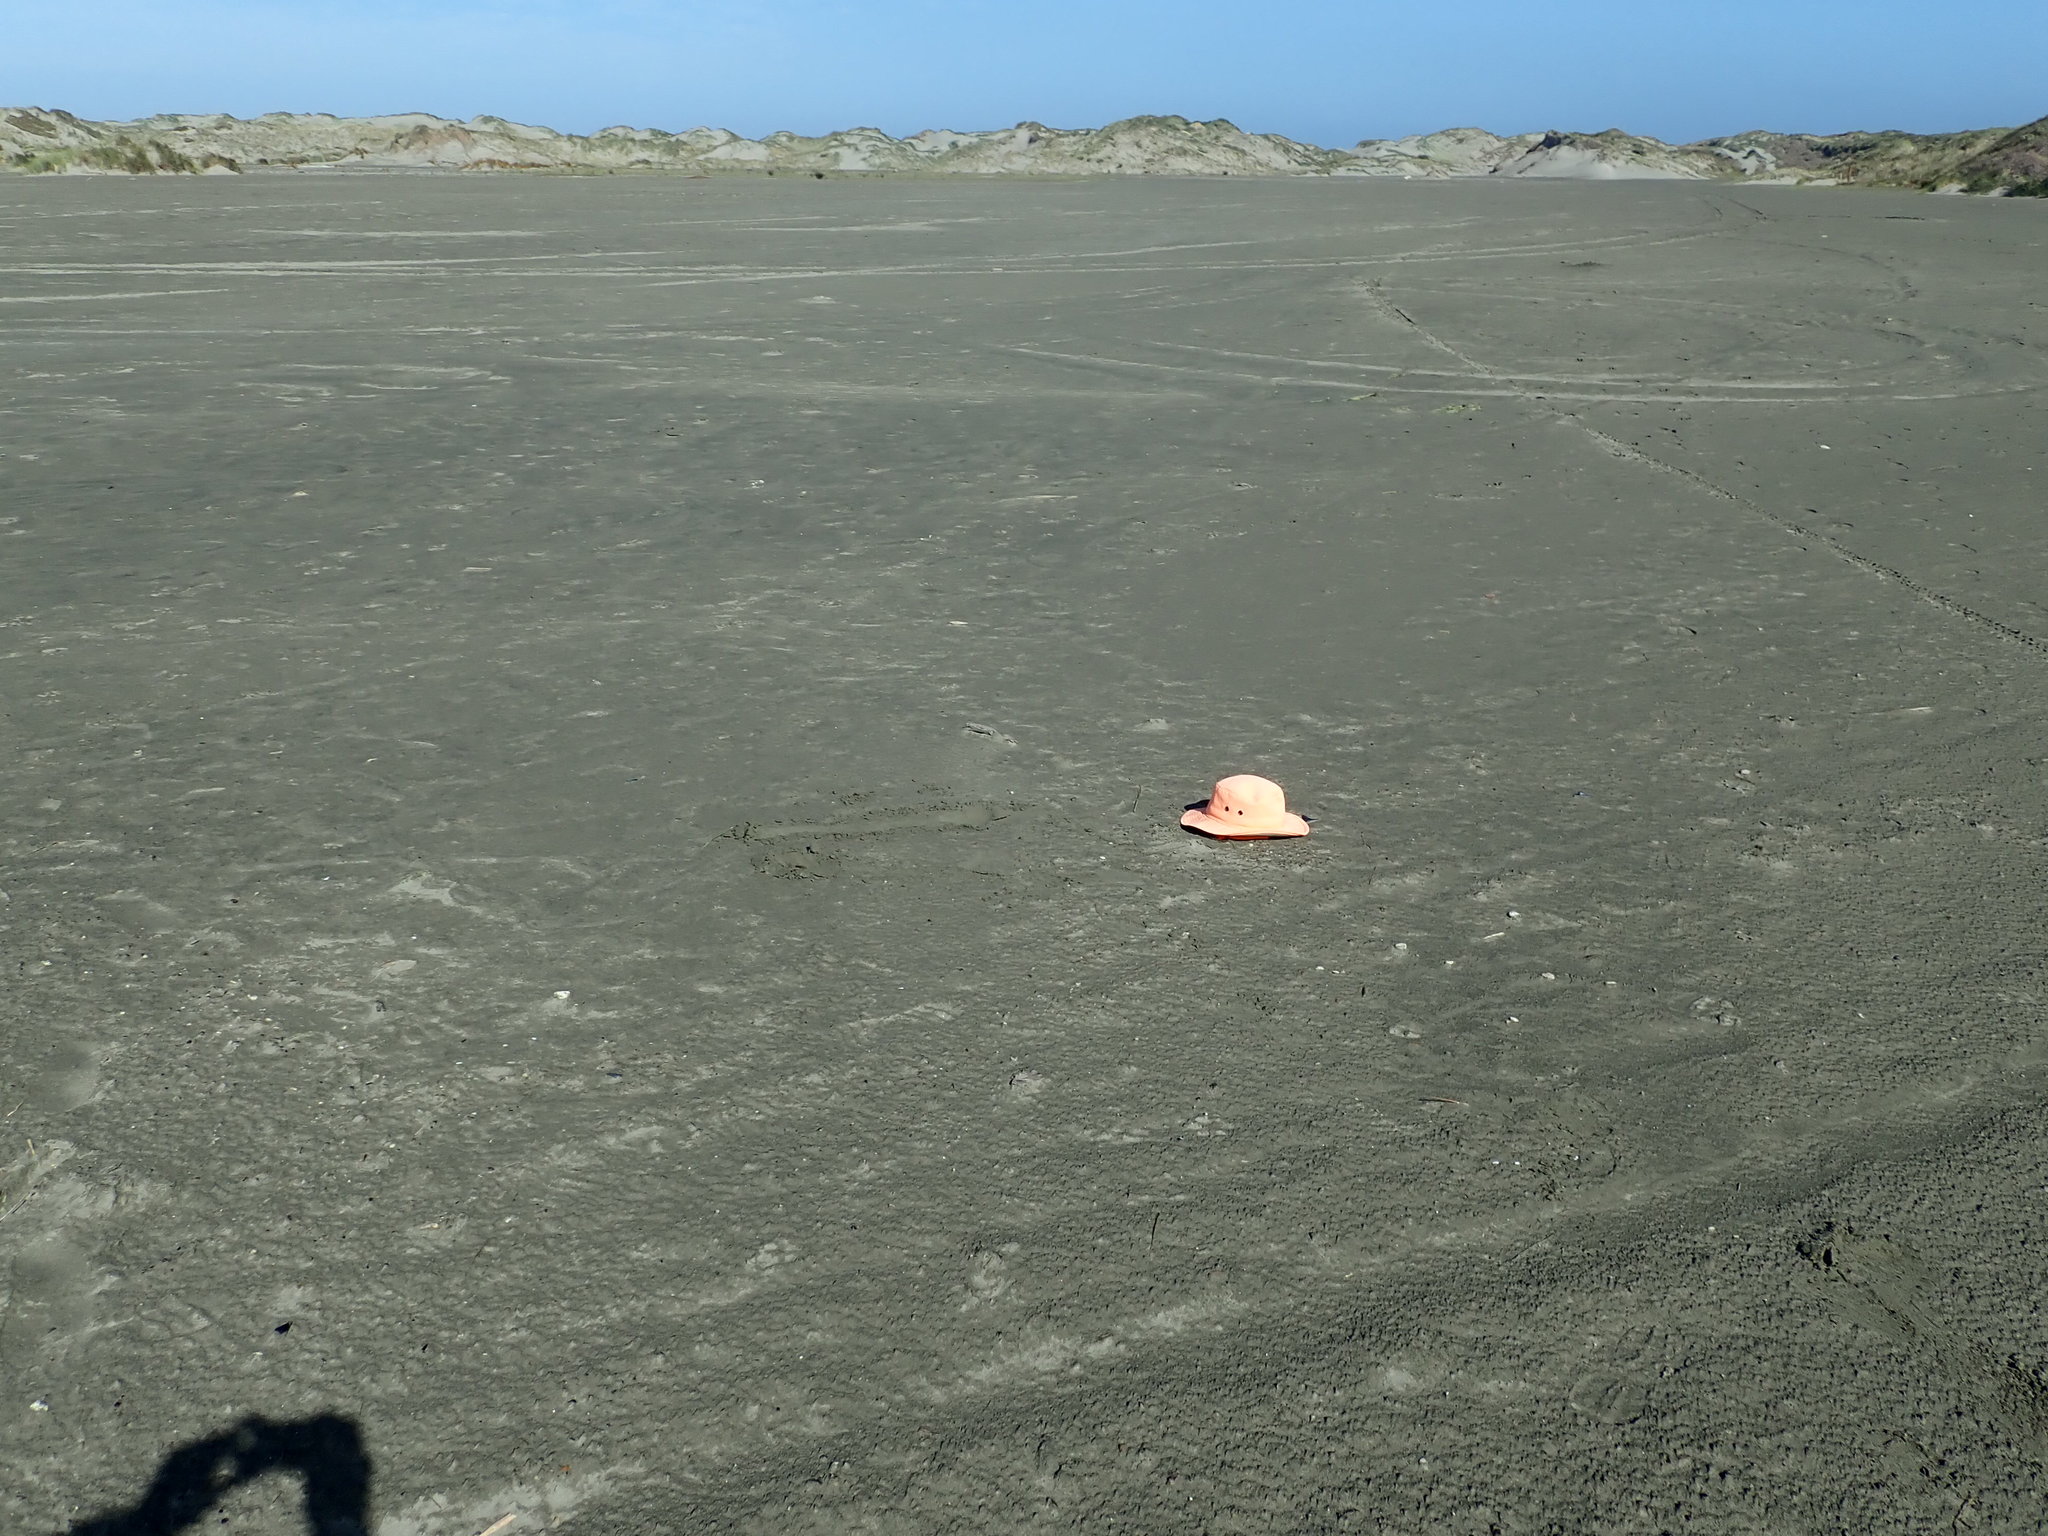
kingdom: Plantae
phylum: Tracheophyta
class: Liliopsida
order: Poales
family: Cyperaceae
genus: Carex
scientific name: Carex pumila
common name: Dwarf sedge
